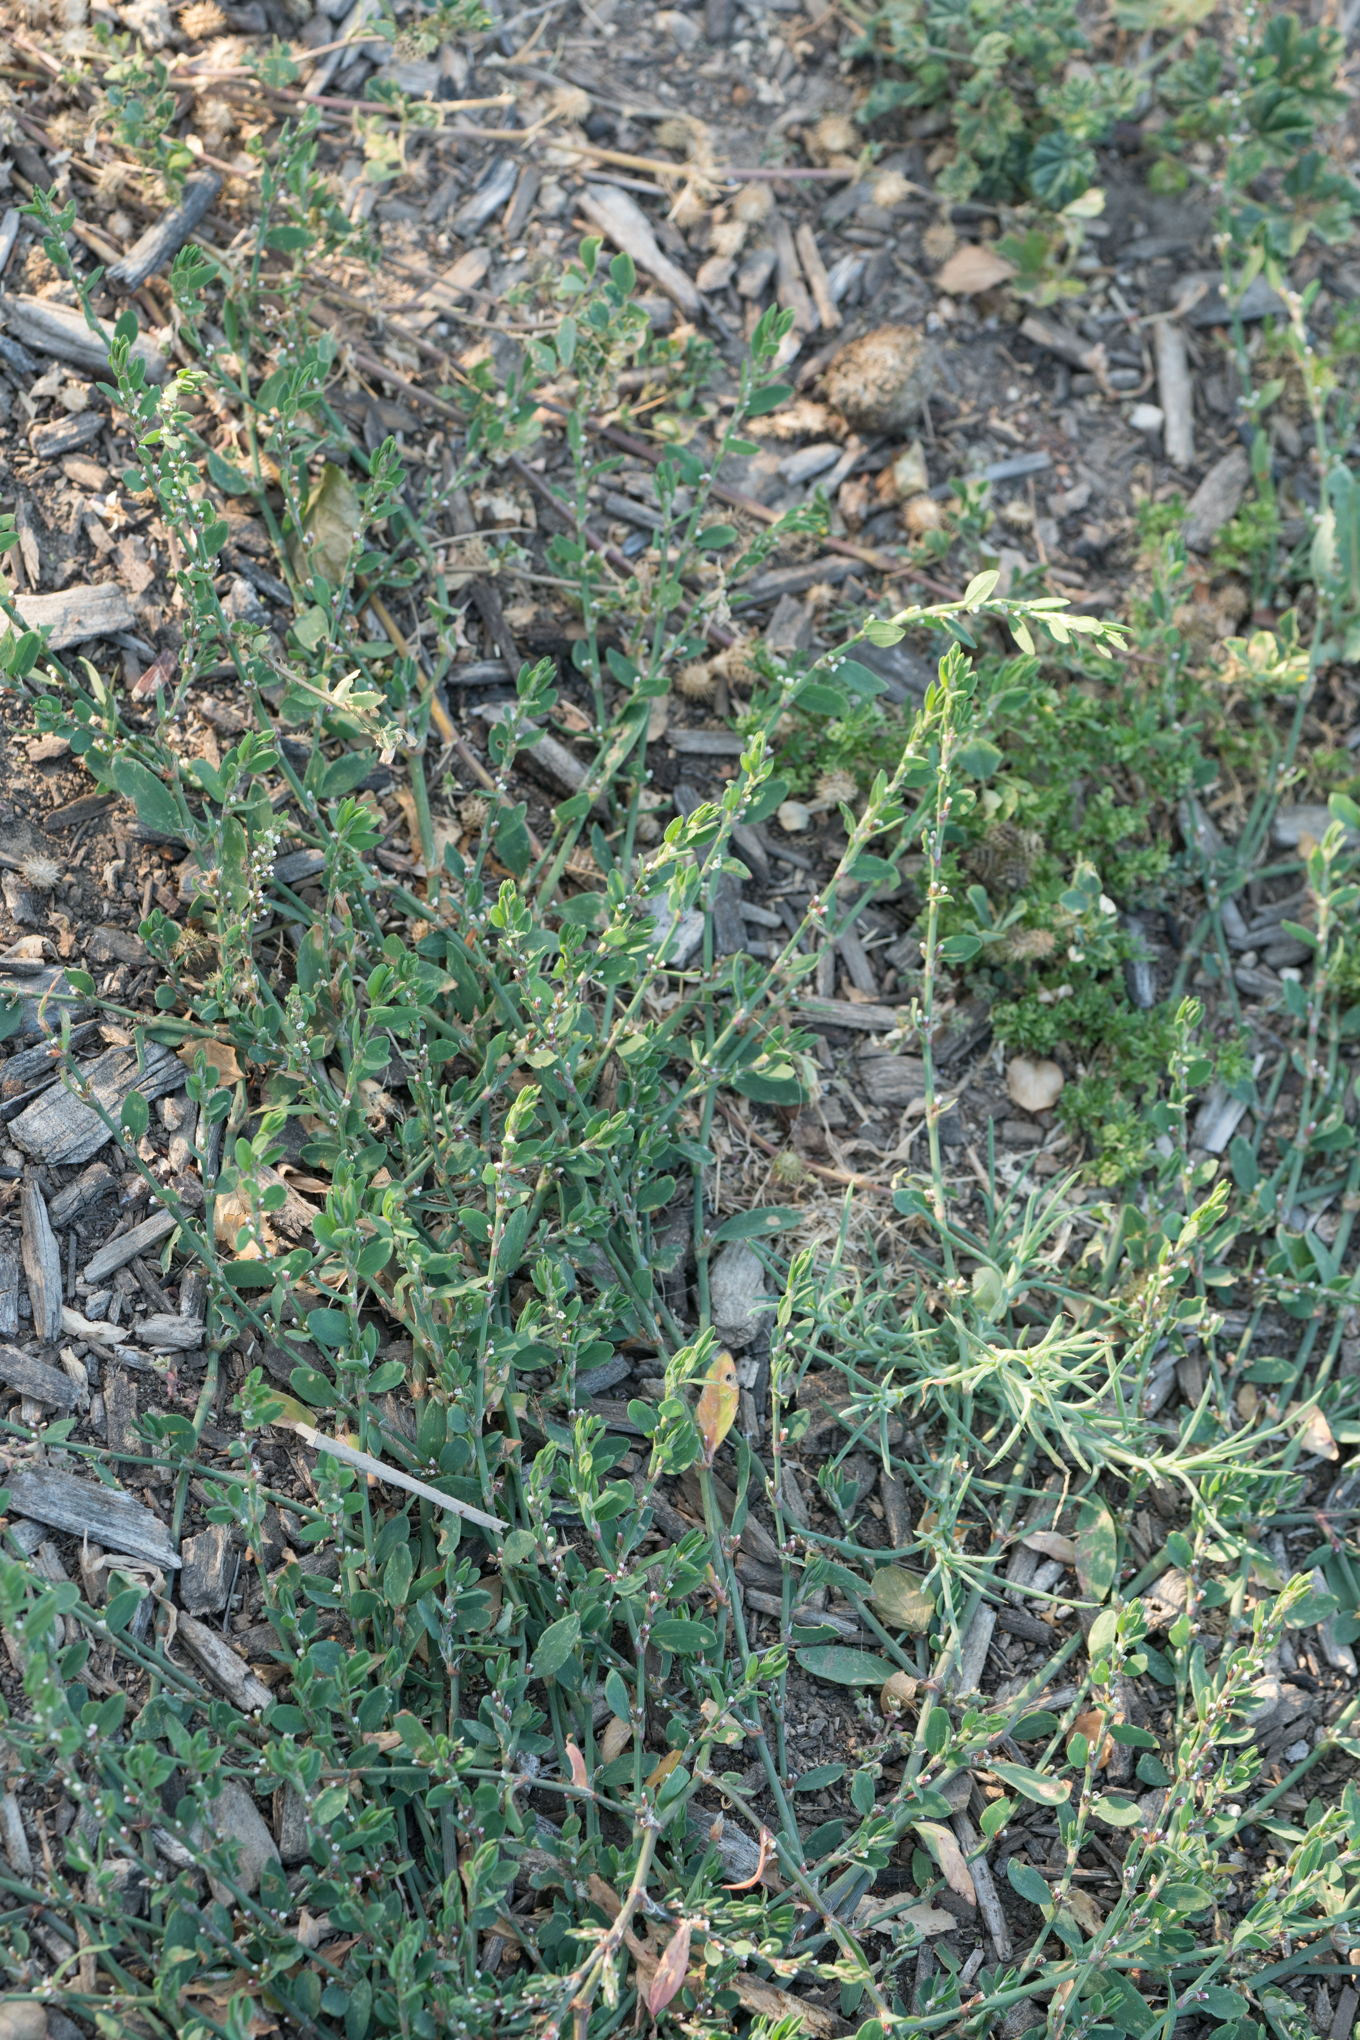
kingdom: Plantae
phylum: Tracheophyta
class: Magnoliopsida
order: Caryophyllales
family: Polygonaceae
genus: Polygonum
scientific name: Polygonum aviculare
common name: Prostrate knotweed
